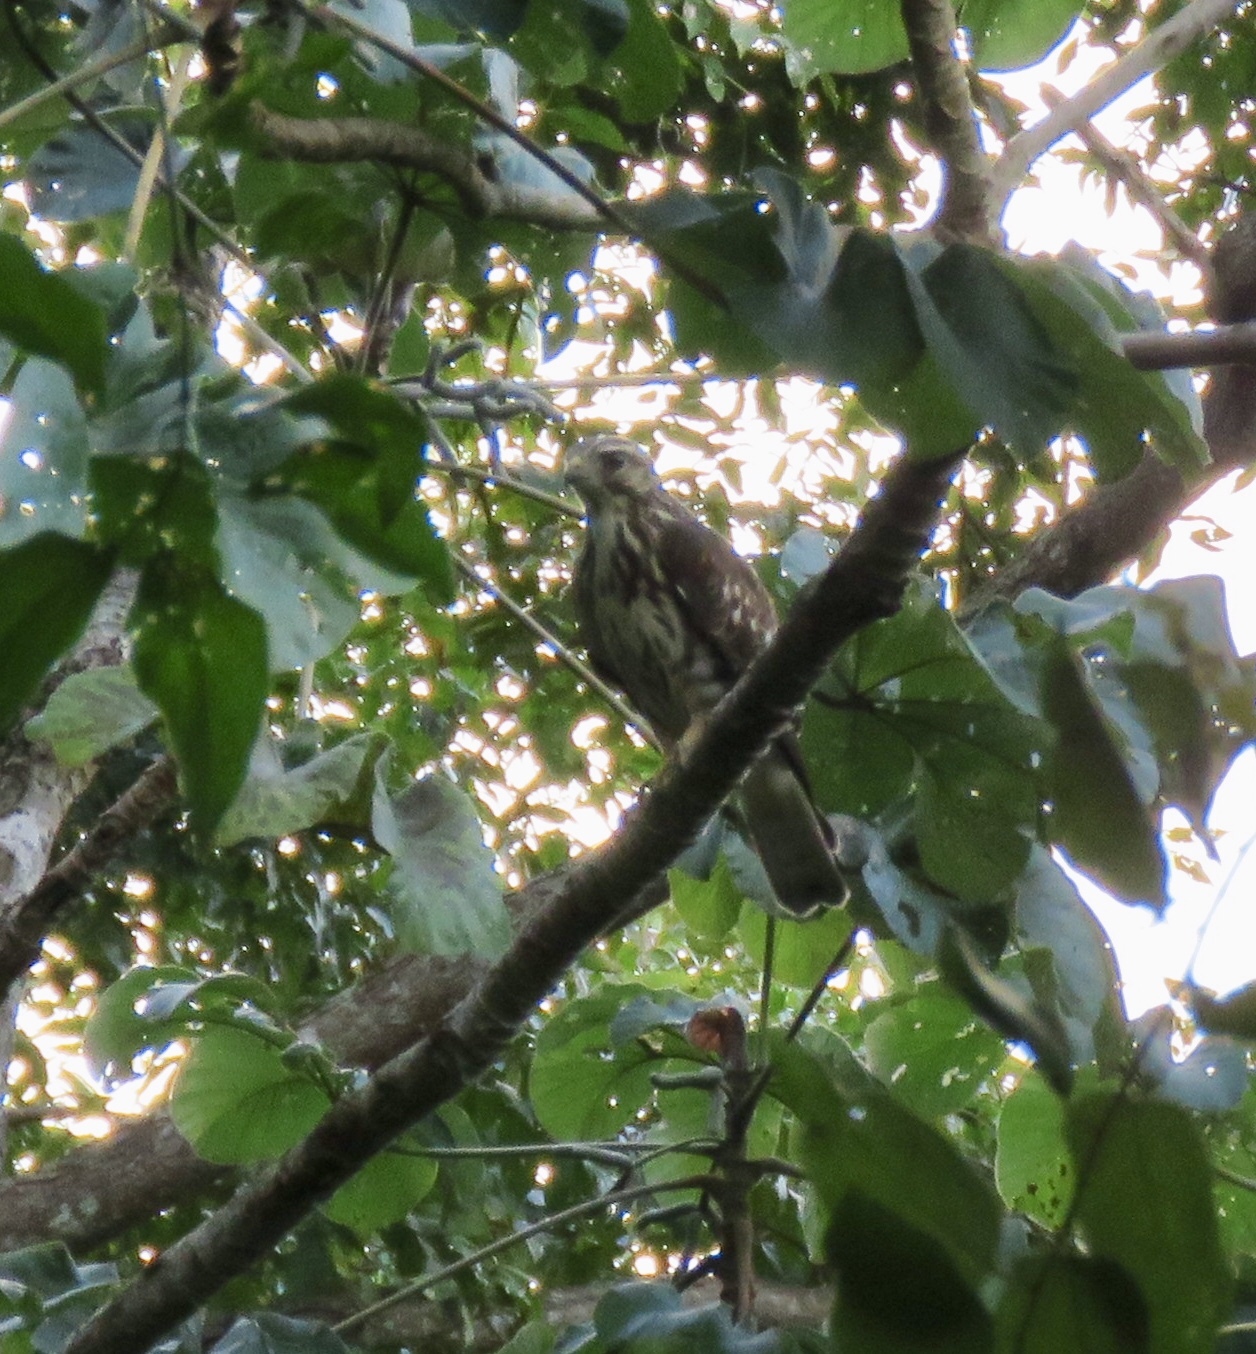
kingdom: Animalia
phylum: Chordata
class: Aves
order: Accipitriformes
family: Accipitridae
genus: Buteo
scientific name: Buteo platypterus
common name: Broad-winged hawk
